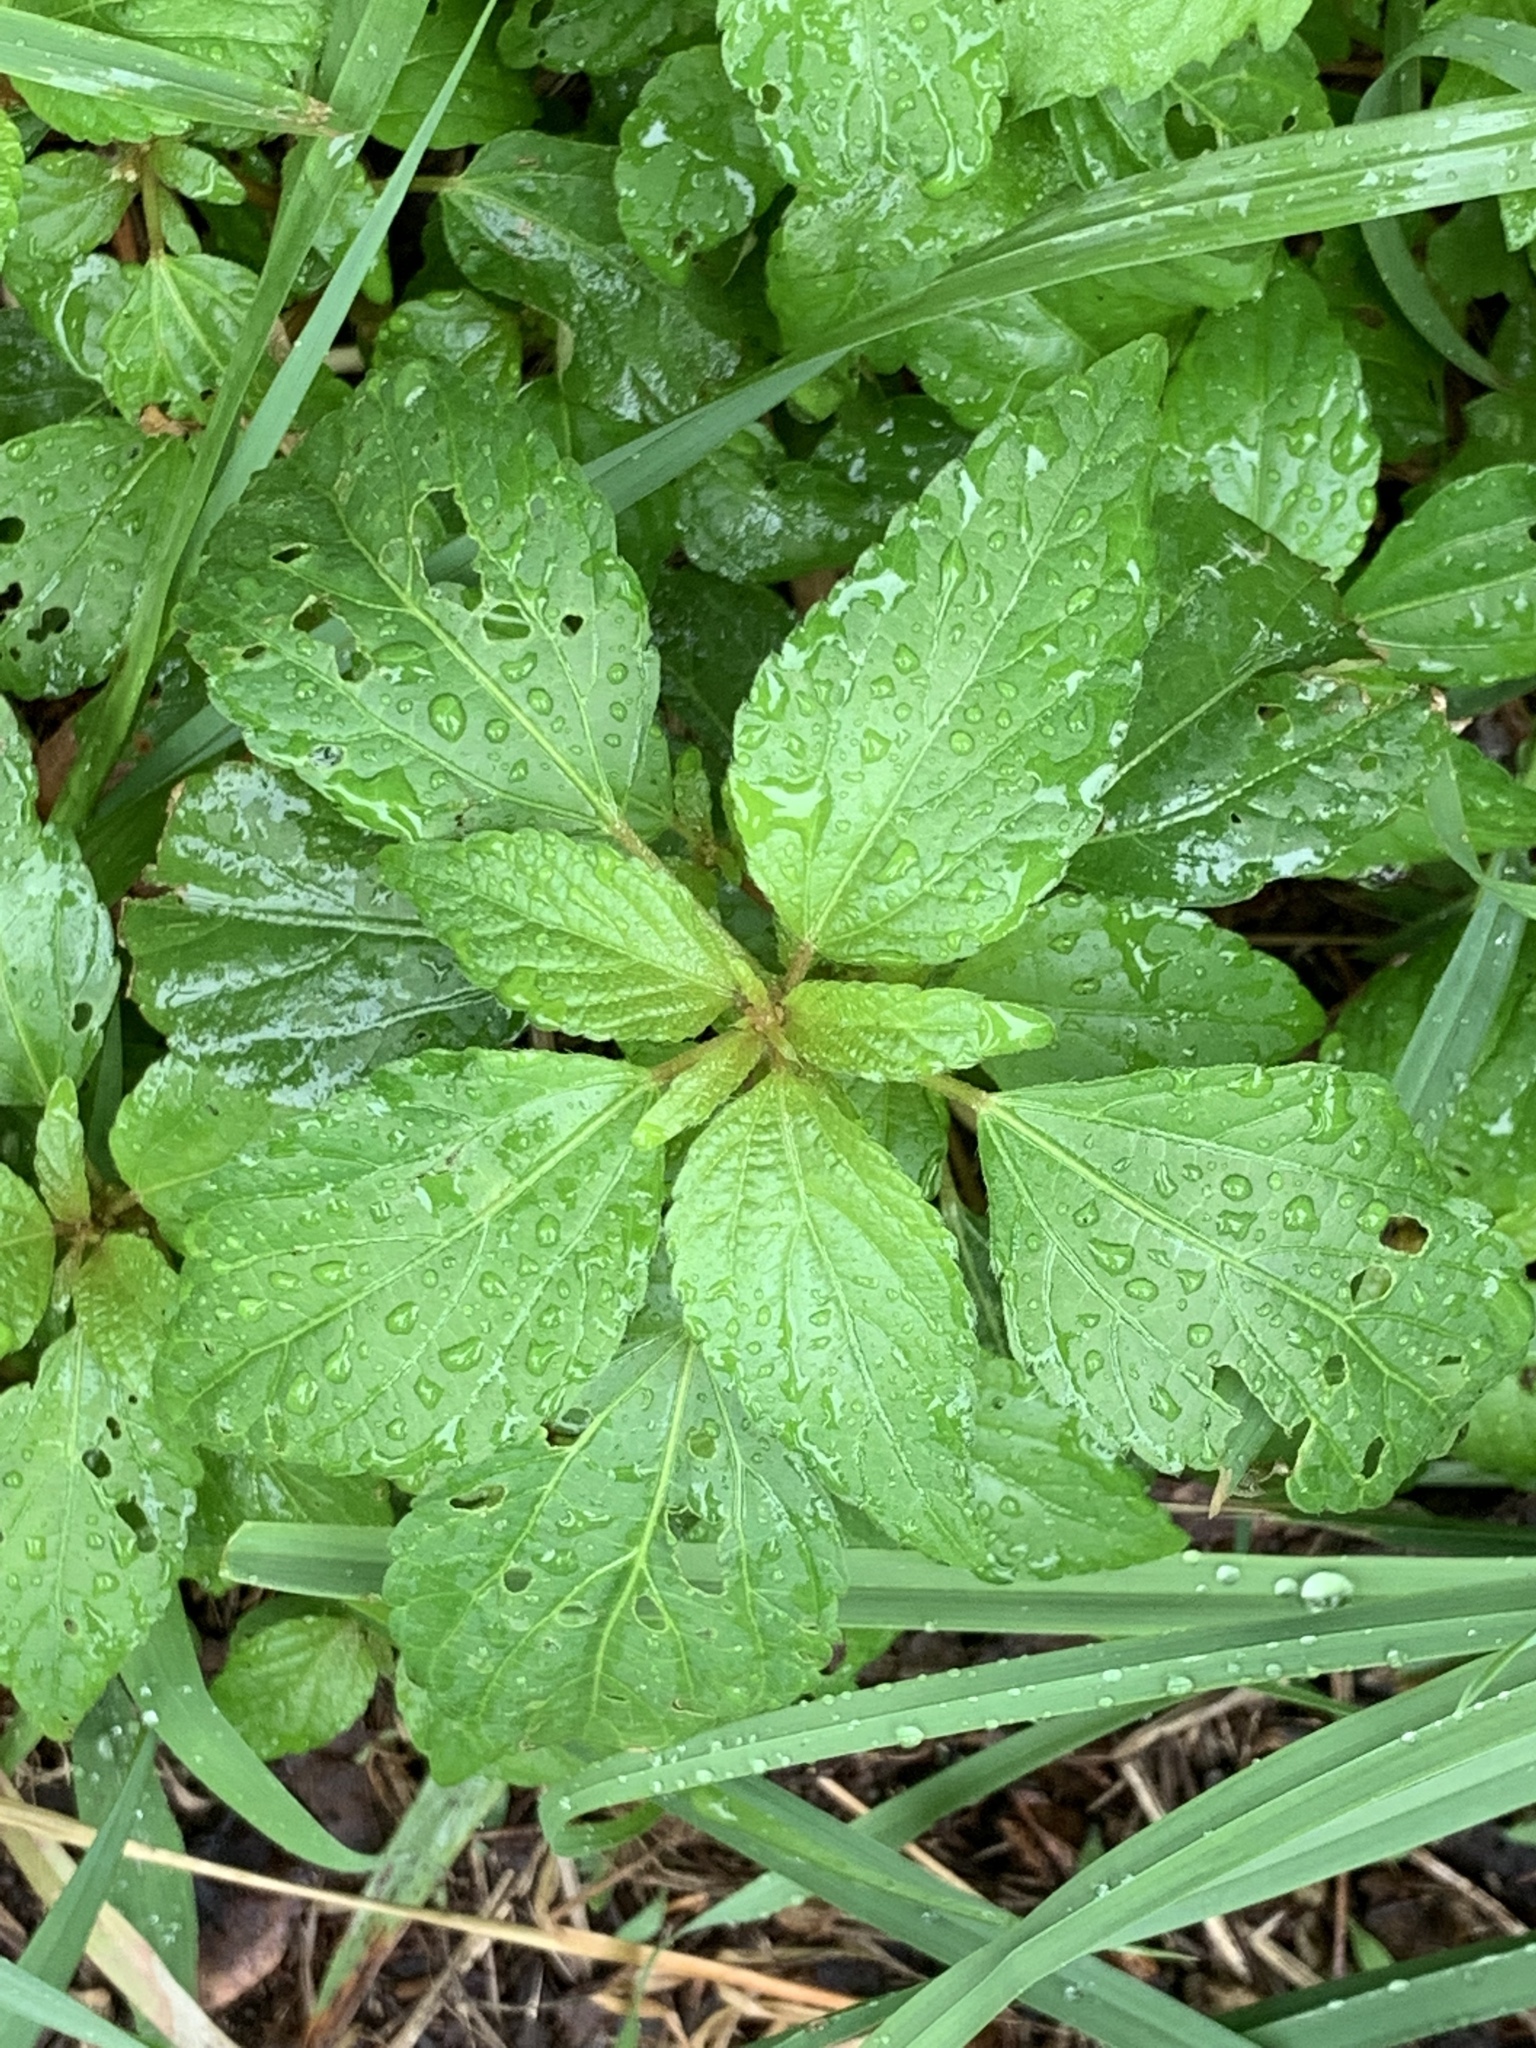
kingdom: Plantae
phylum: Tracheophyta
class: Magnoliopsida
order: Malpighiales
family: Euphorbiaceae
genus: Acalypha
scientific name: Acalypha rhomboidea
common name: Rhombic copperleaf
